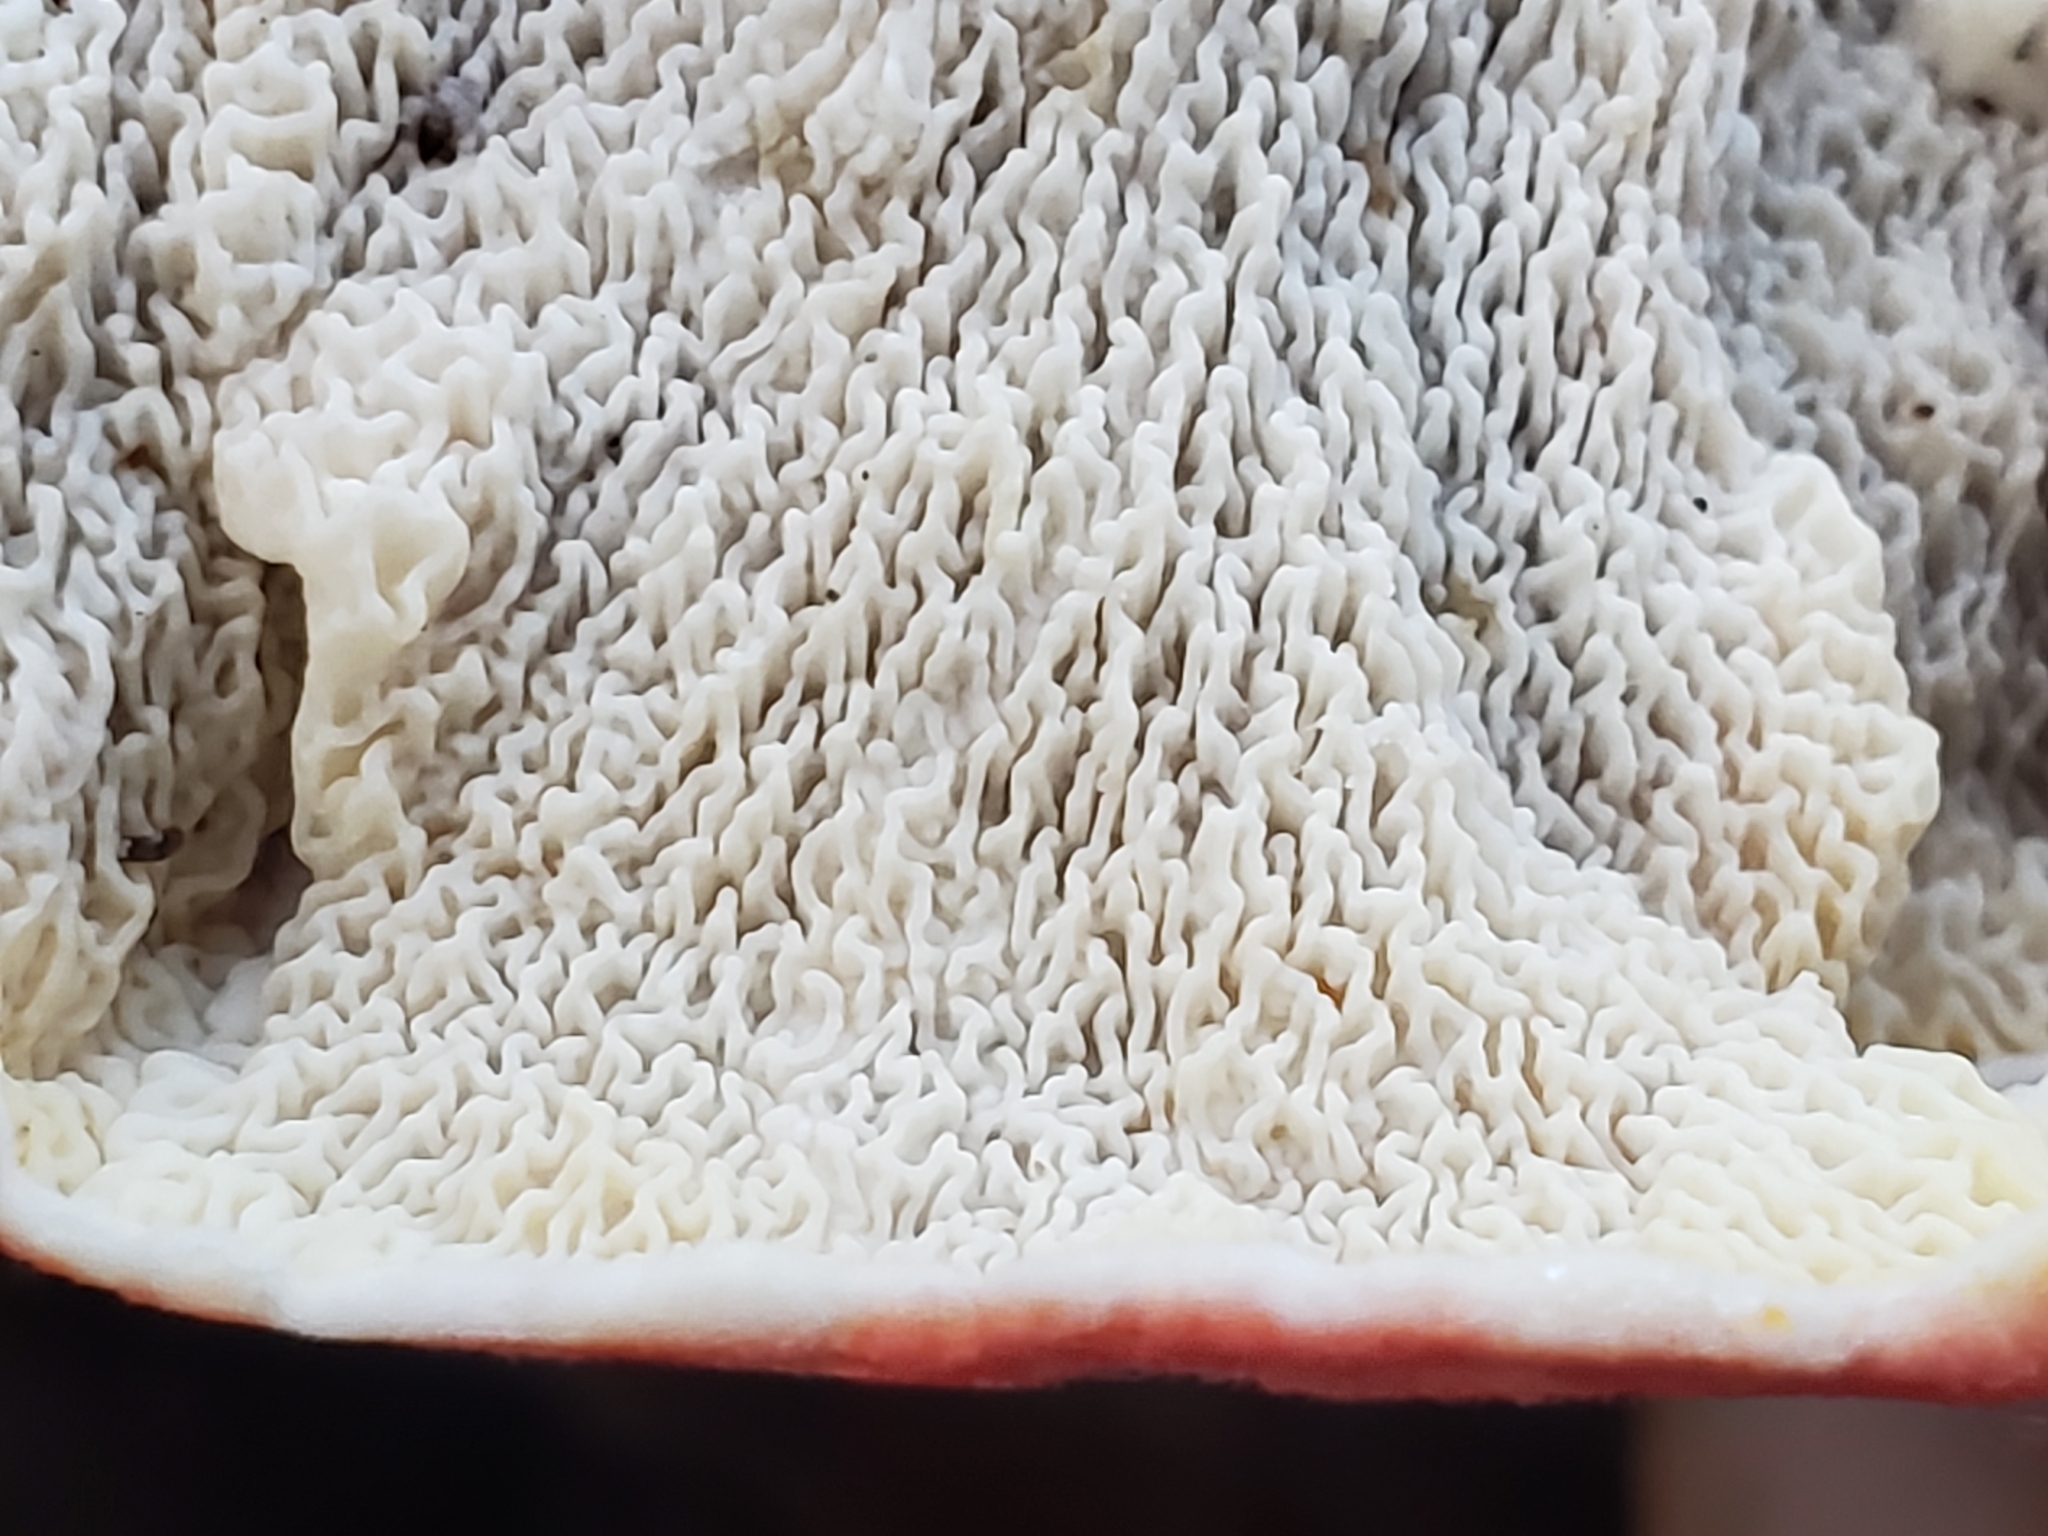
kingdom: Fungi
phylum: Basidiomycota
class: Agaricomycetes
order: Polyporales
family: Irpicaceae
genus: Byssomerulius
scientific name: Byssomerulius incarnatus
